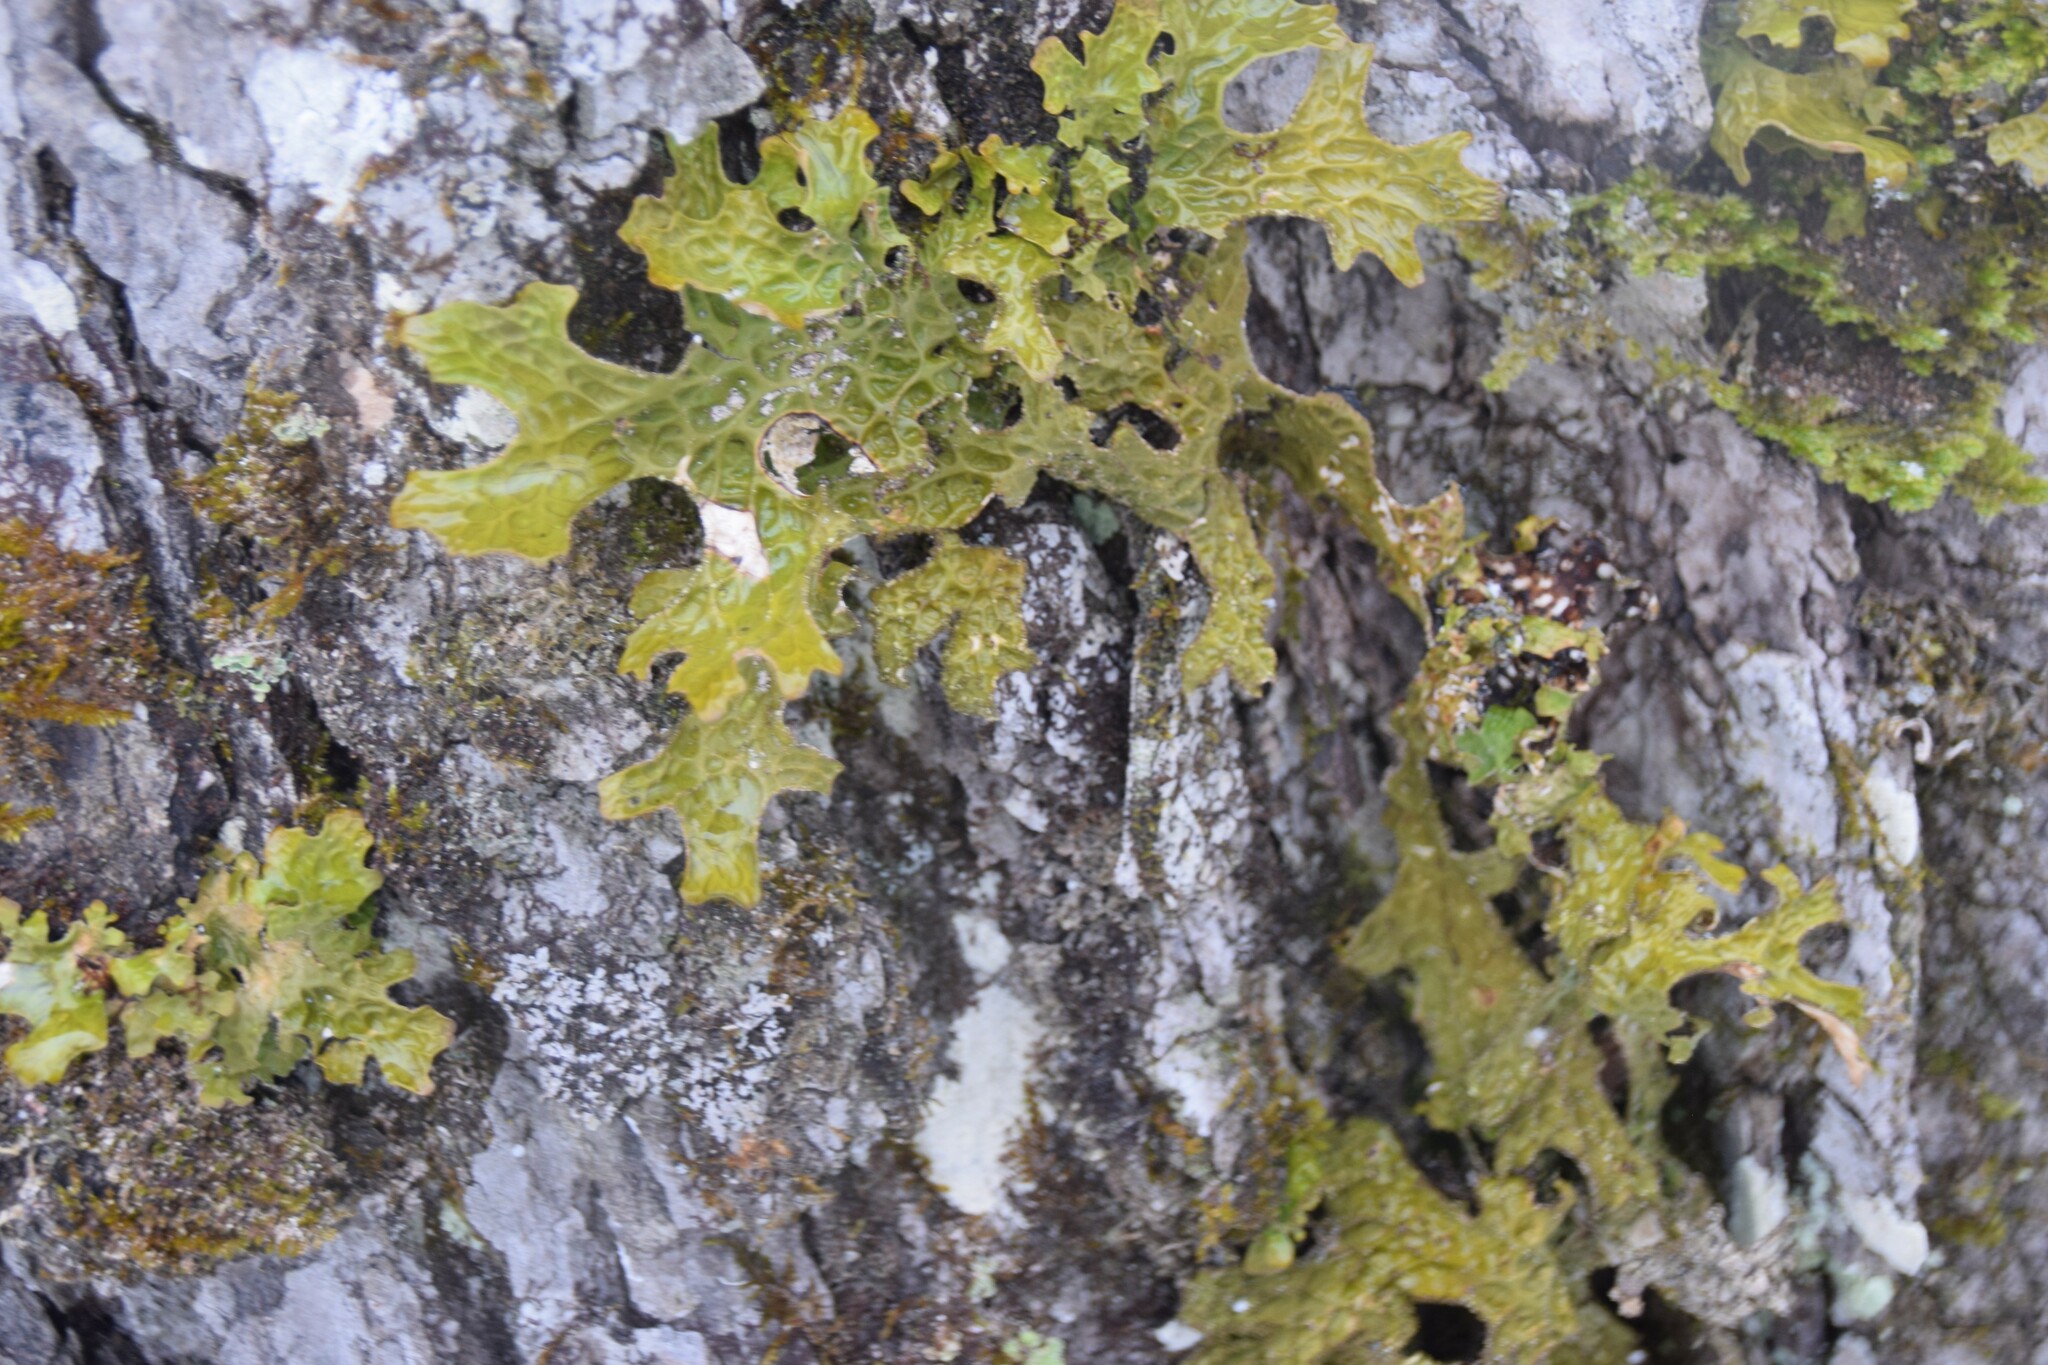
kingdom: Fungi
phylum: Ascomycota
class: Lecanoromycetes
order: Peltigerales
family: Lobariaceae
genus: Lobaria
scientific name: Lobaria pulmonaria
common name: Lungwort
